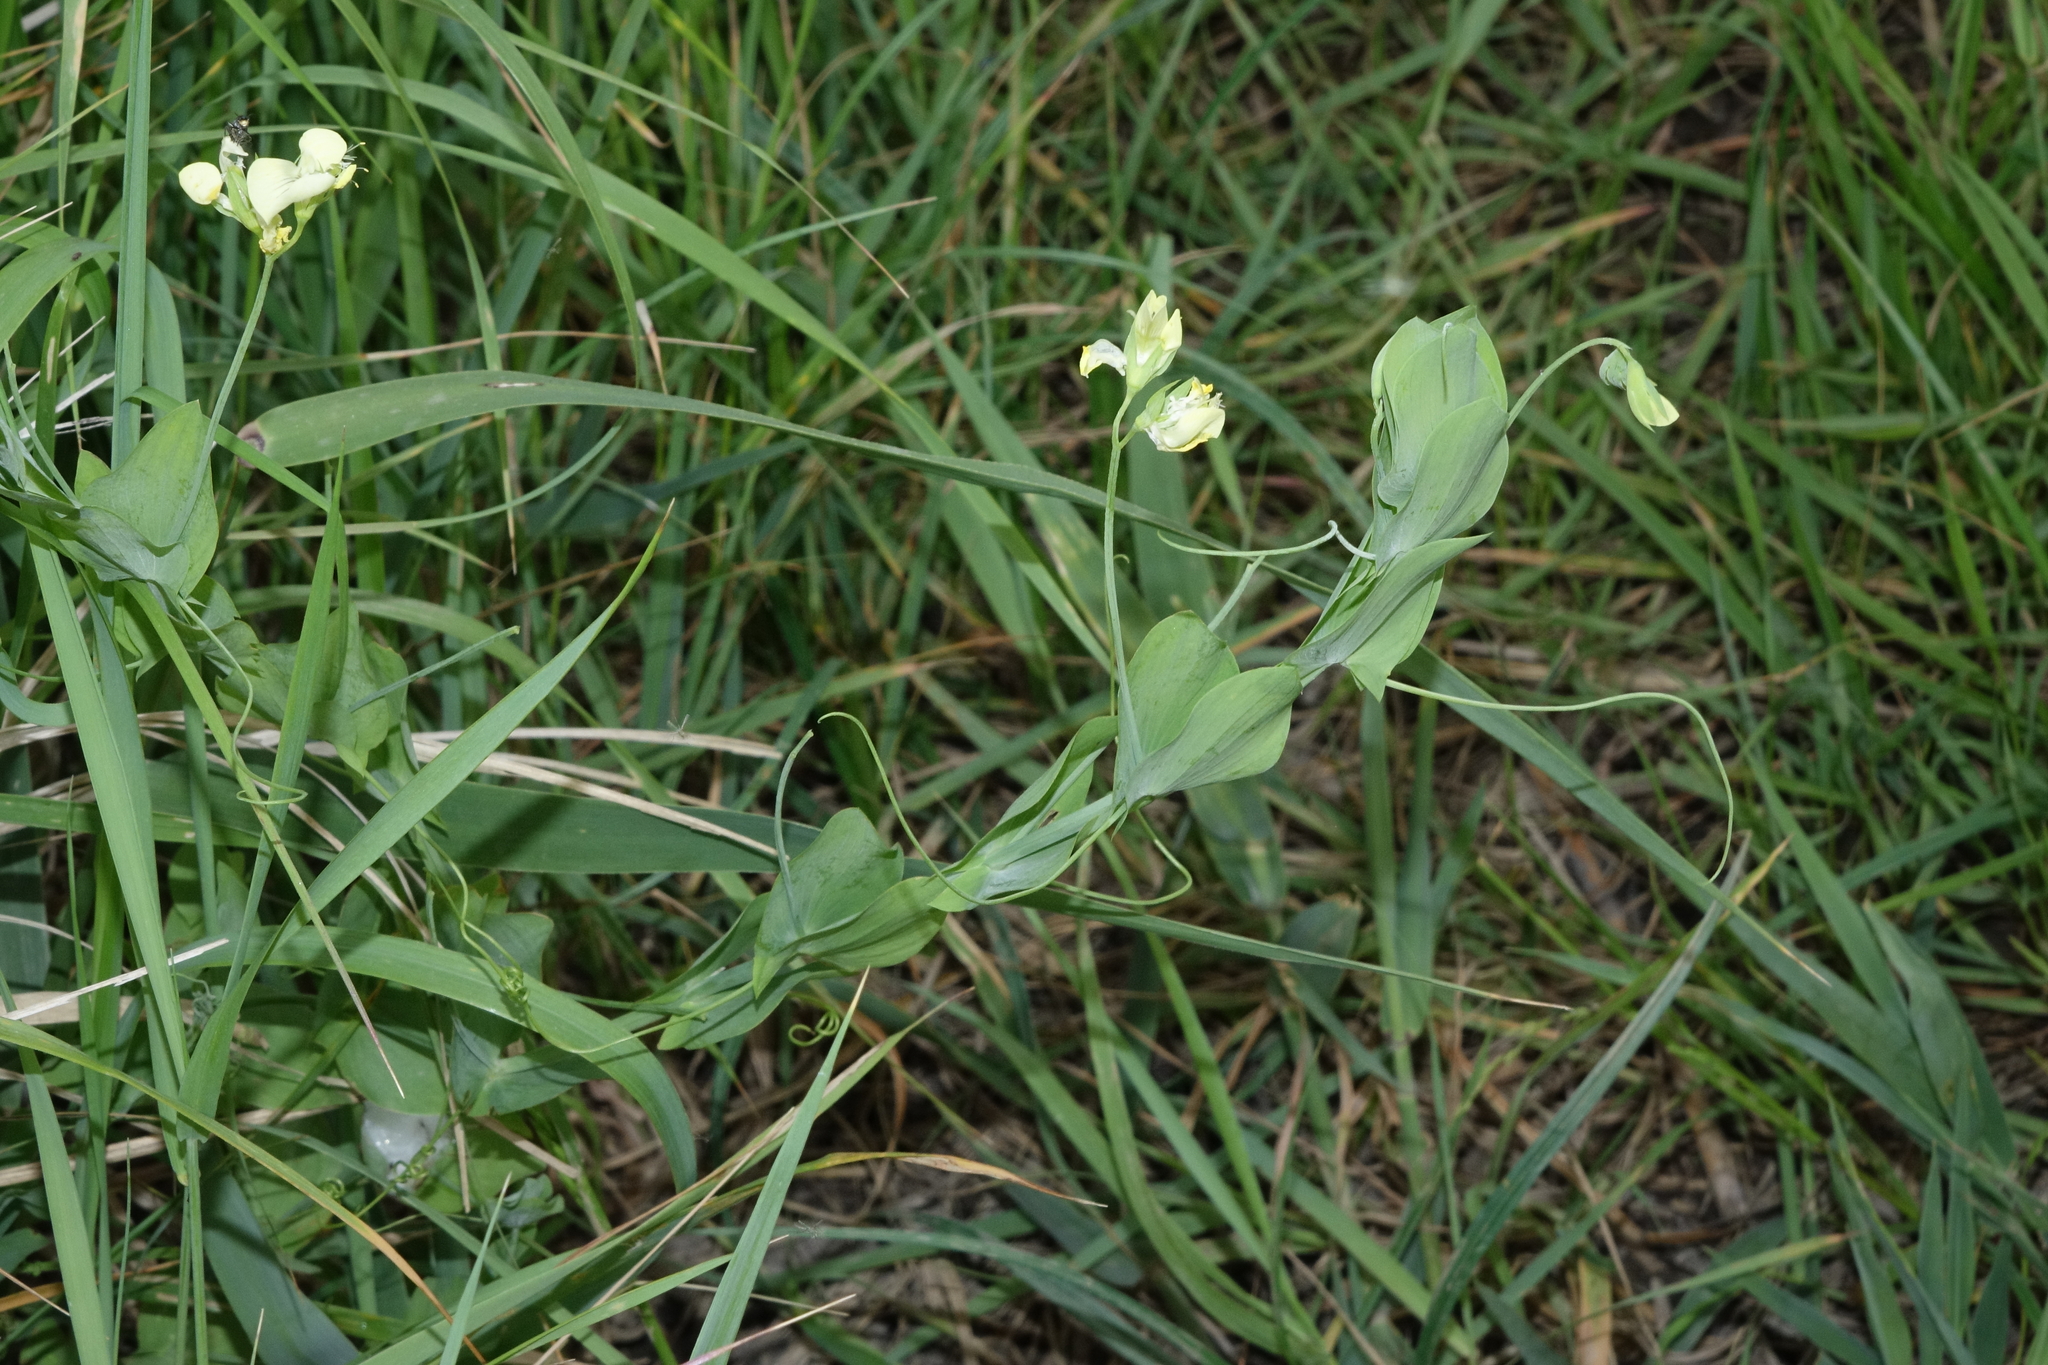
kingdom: Plantae
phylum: Tracheophyta
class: Magnoliopsida
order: Fabales
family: Fabaceae
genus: Lathyrus
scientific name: Lathyrus aphaca
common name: Yellow vetchling
